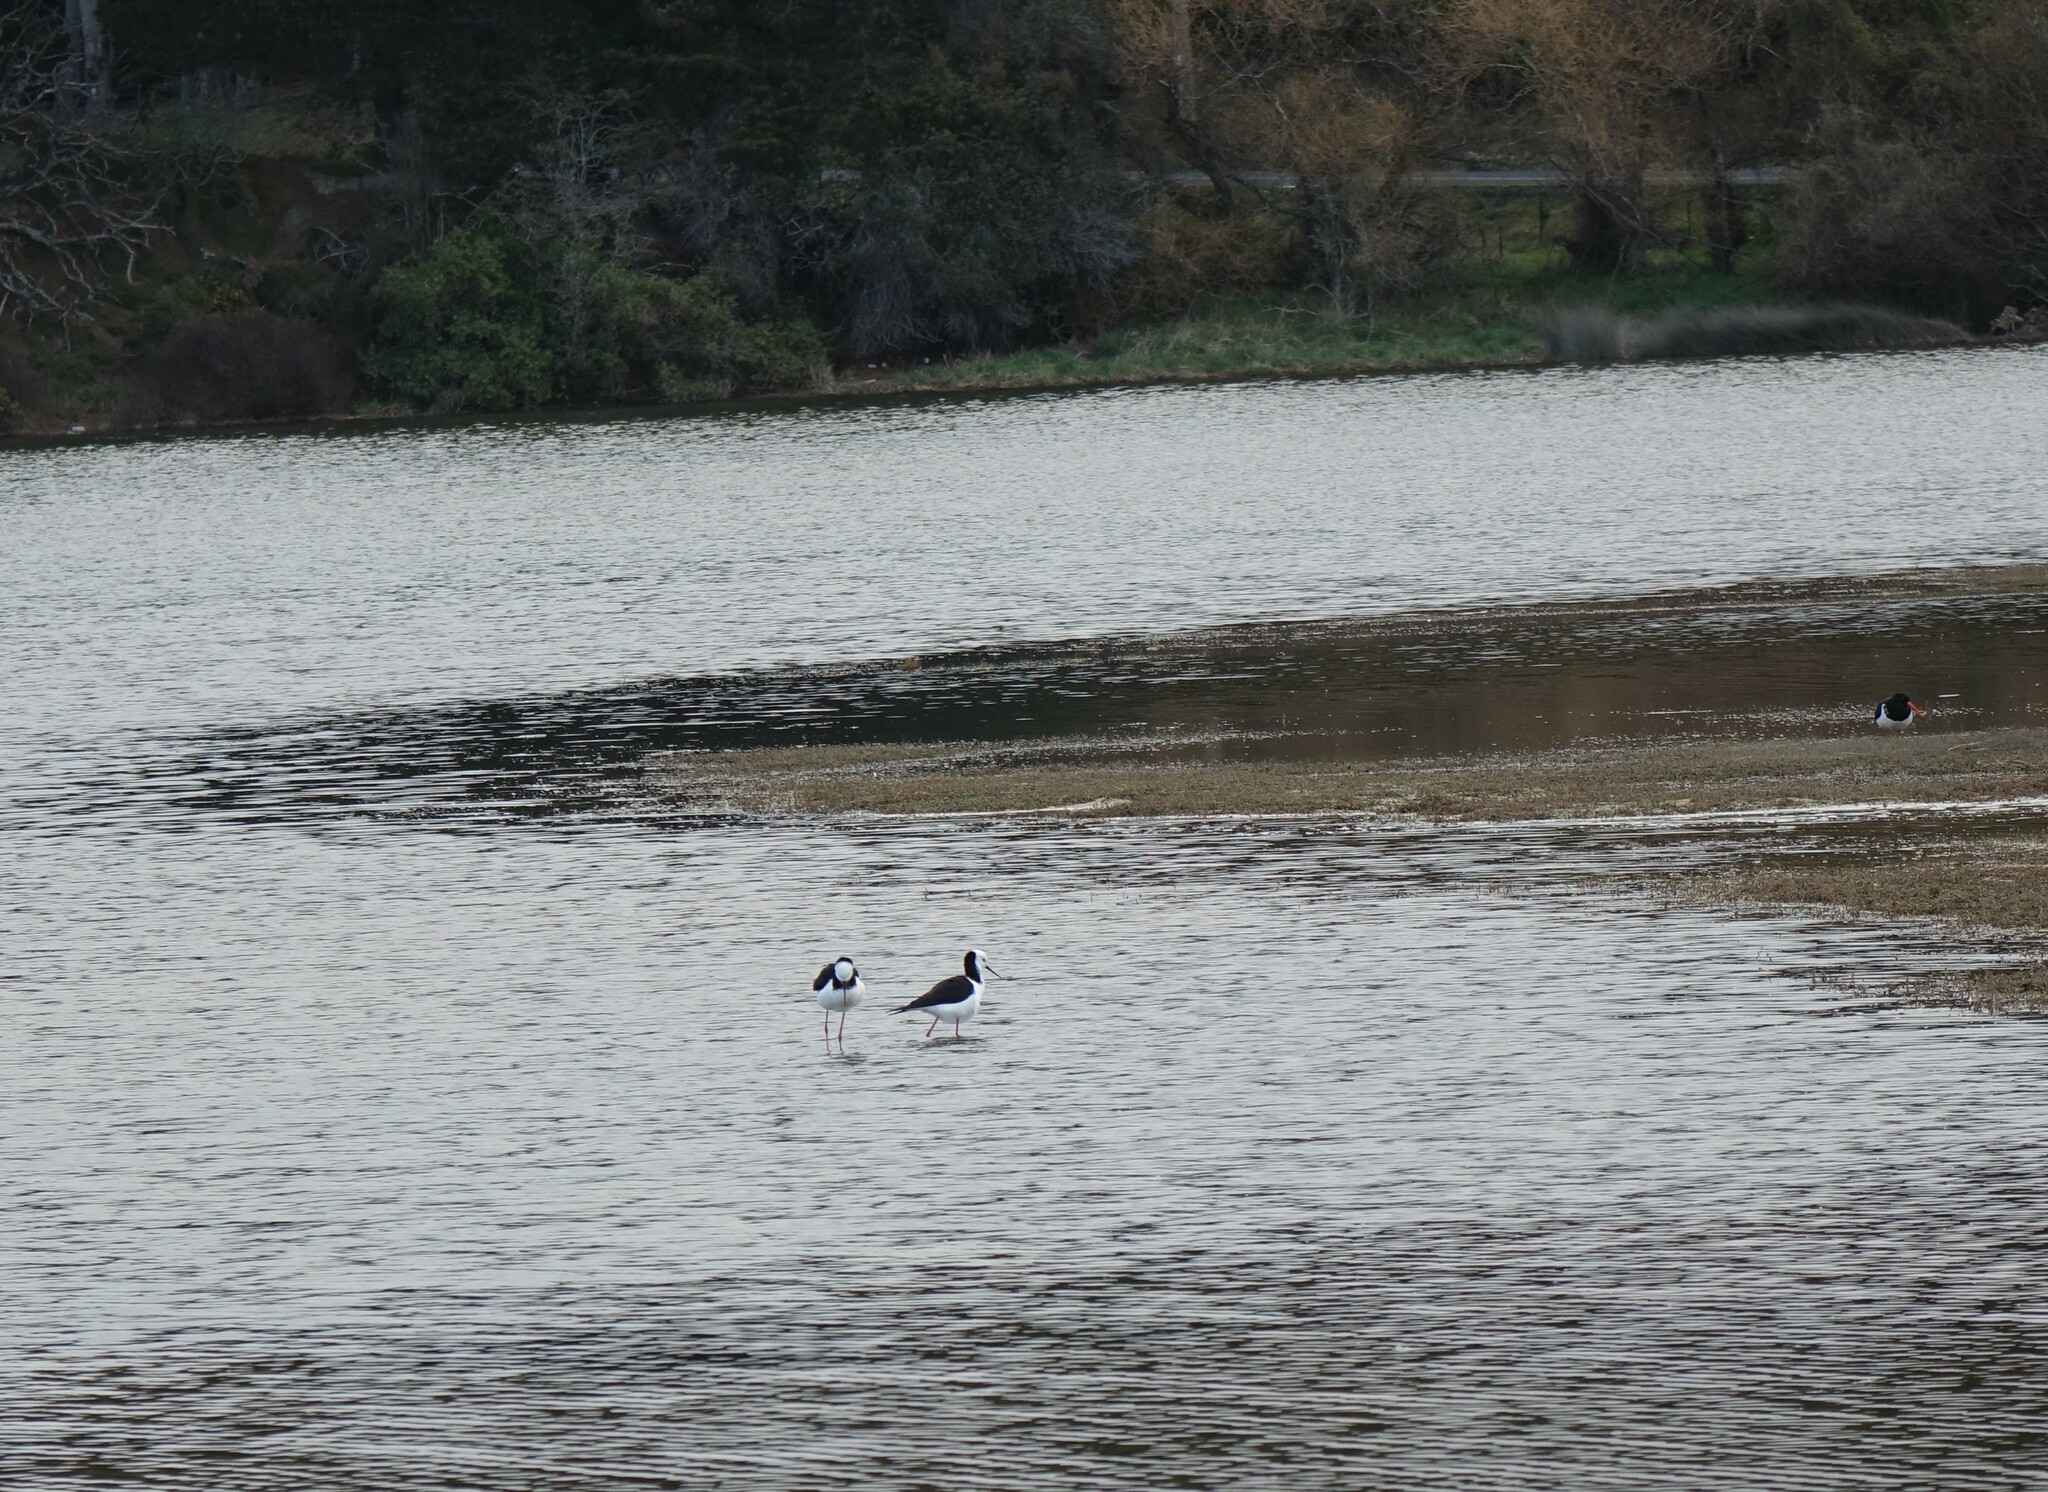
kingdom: Animalia
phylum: Chordata
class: Aves
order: Charadriiformes
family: Recurvirostridae
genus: Himantopus
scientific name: Himantopus leucocephalus
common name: White-headed stilt
